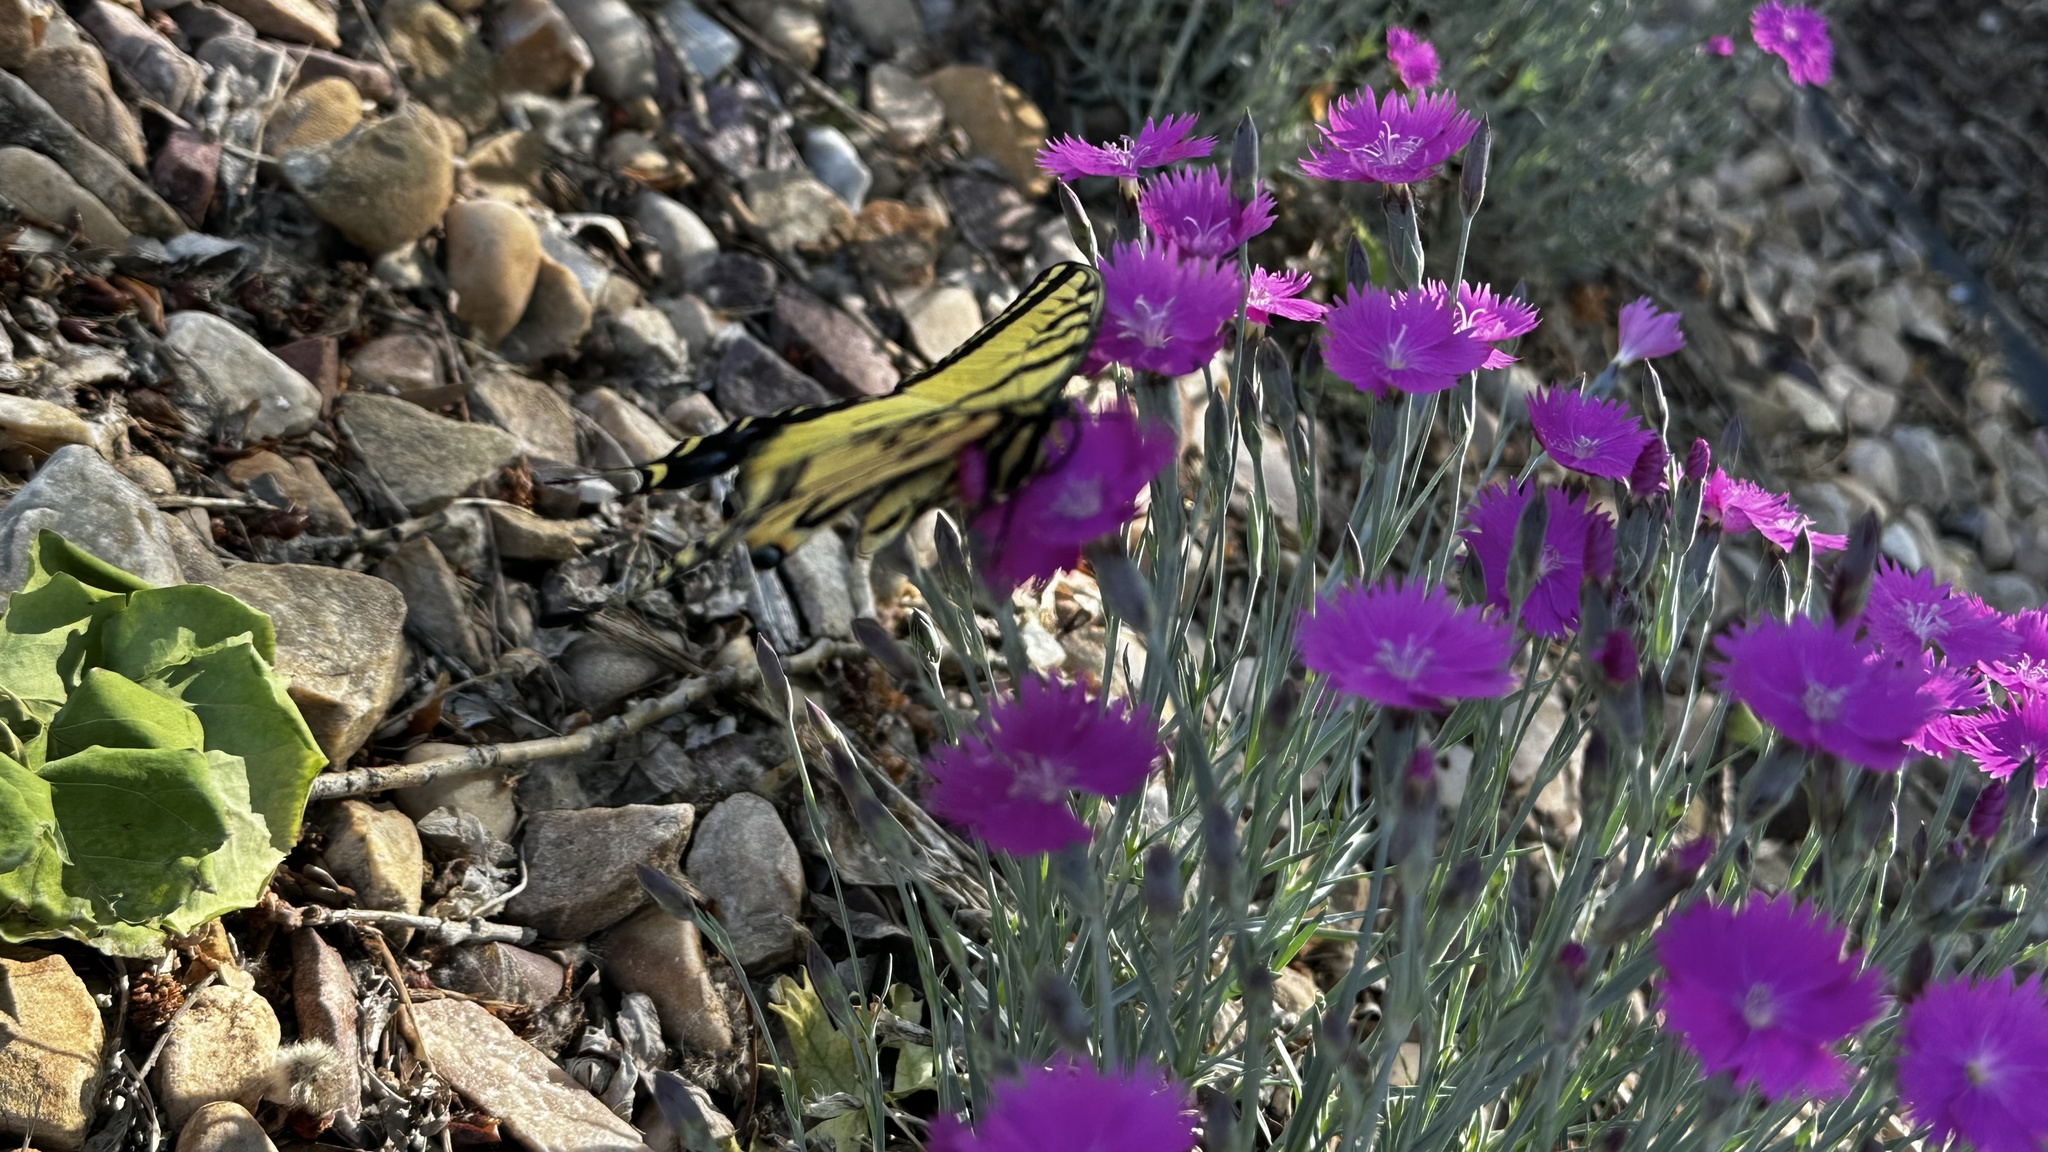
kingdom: Animalia
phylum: Arthropoda
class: Insecta
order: Lepidoptera
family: Papilionidae
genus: Papilio
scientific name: Papilio multicaudata
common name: Two-tailed tiger swallowtail
